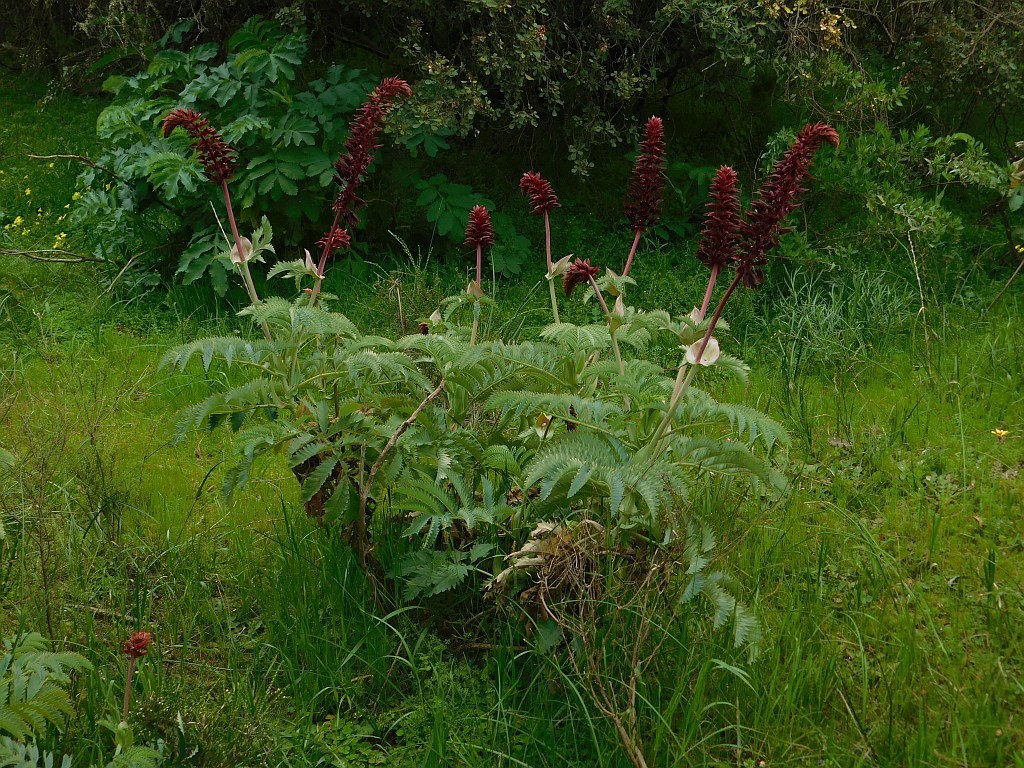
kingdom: Plantae
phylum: Tracheophyta
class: Magnoliopsida
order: Geraniales
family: Melianthaceae
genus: Melianthus
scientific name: Melianthus major
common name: Honey-flower
